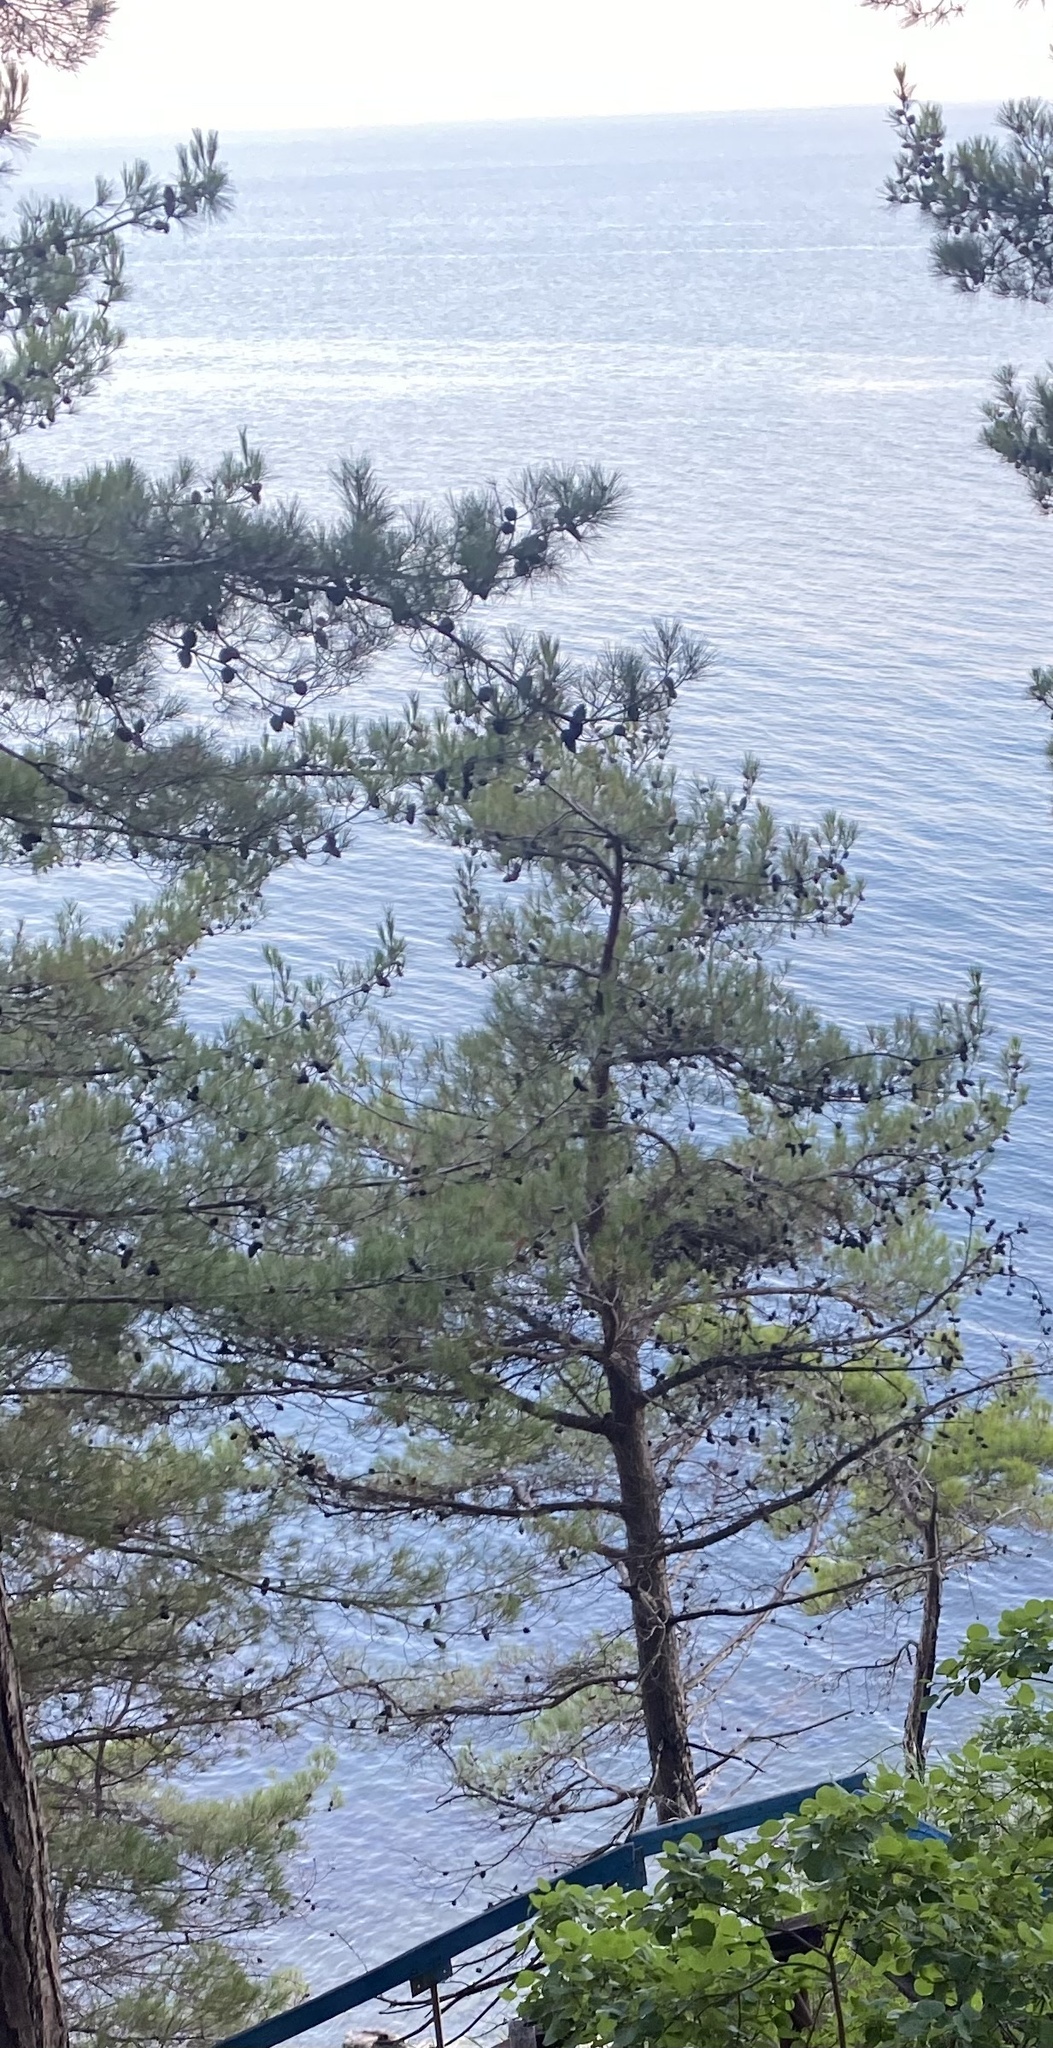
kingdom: Plantae
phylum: Tracheophyta
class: Pinopsida
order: Pinales
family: Pinaceae
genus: Pinus
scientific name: Pinus brutia
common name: Turkish pine
